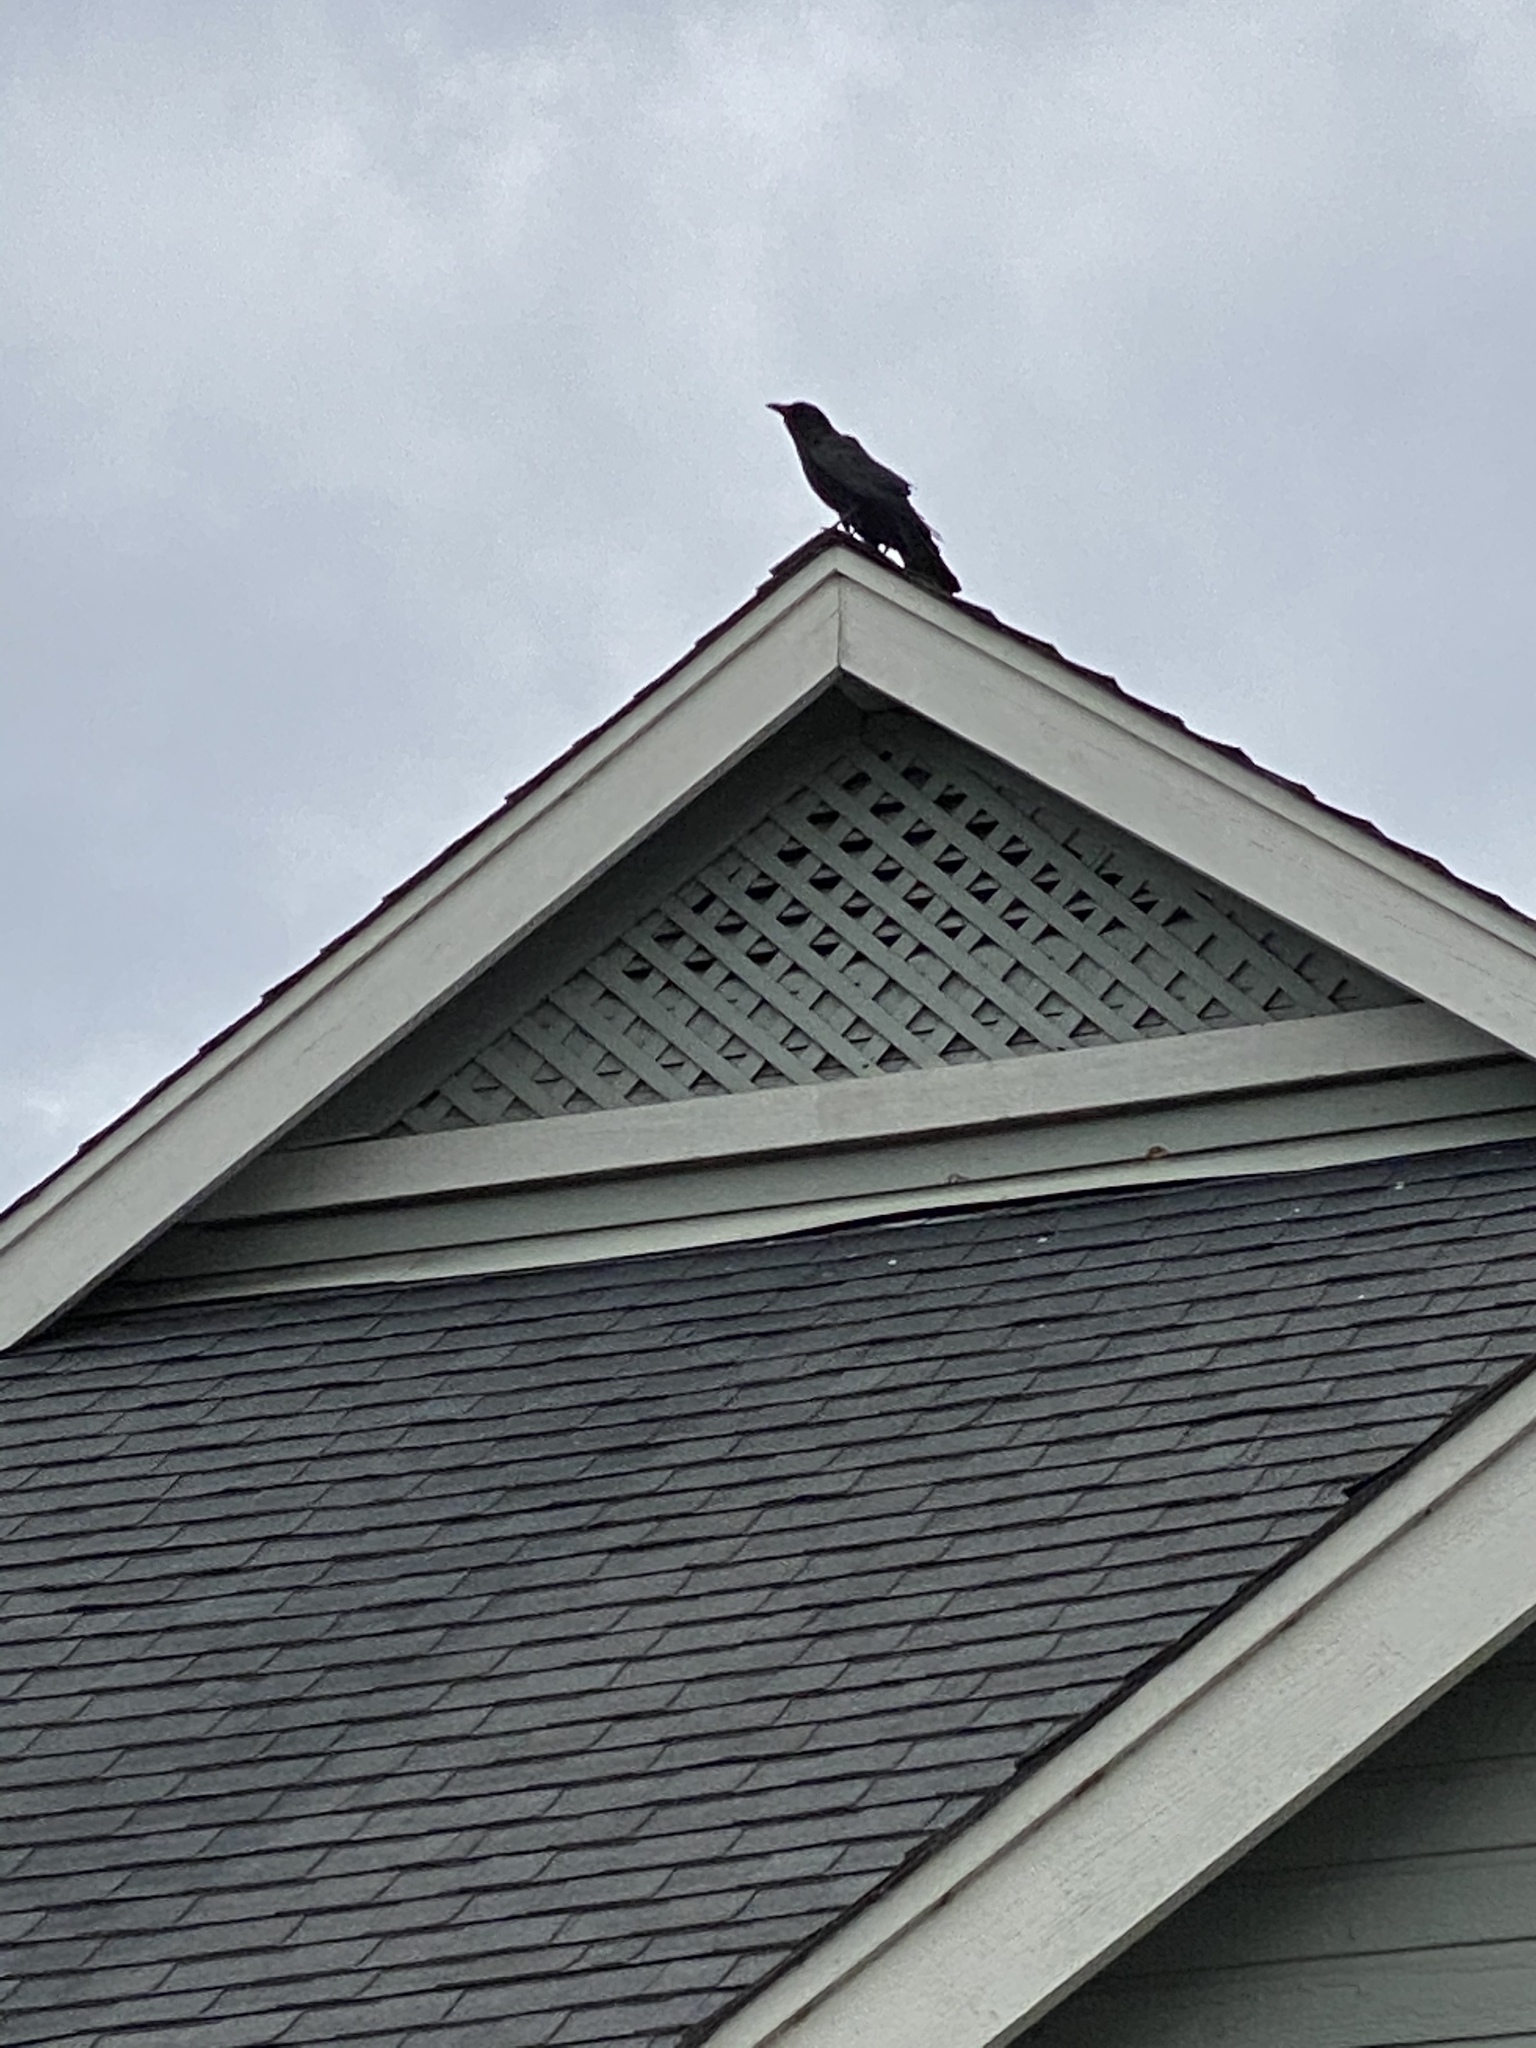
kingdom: Animalia
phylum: Chordata
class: Aves
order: Passeriformes
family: Corvidae
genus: Corvus
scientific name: Corvus brachyrhynchos
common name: American crow
